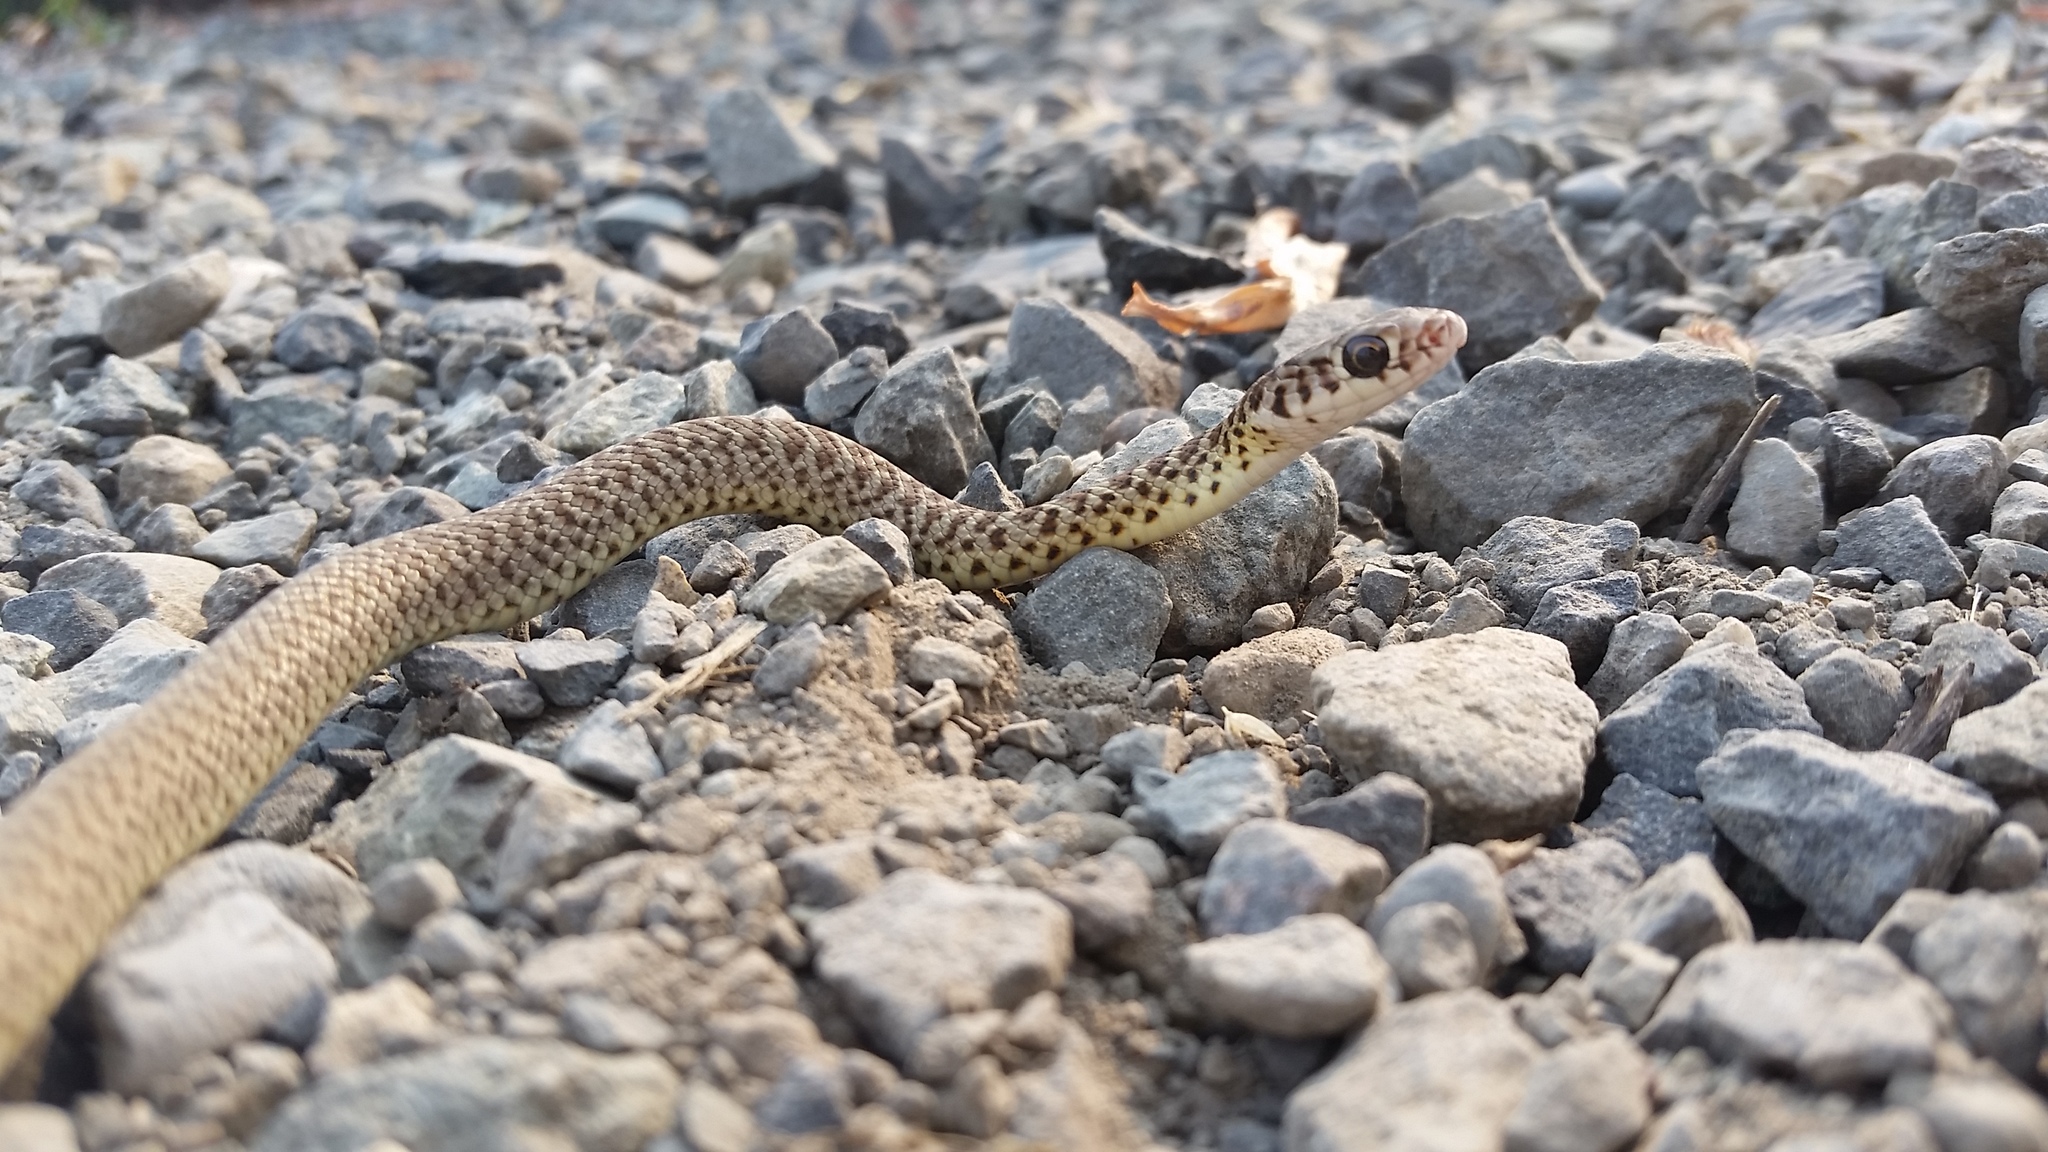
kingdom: Animalia
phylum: Chordata
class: Squamata
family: Colubridae
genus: Coluber
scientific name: Coluber constrictor
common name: Eastern racer
